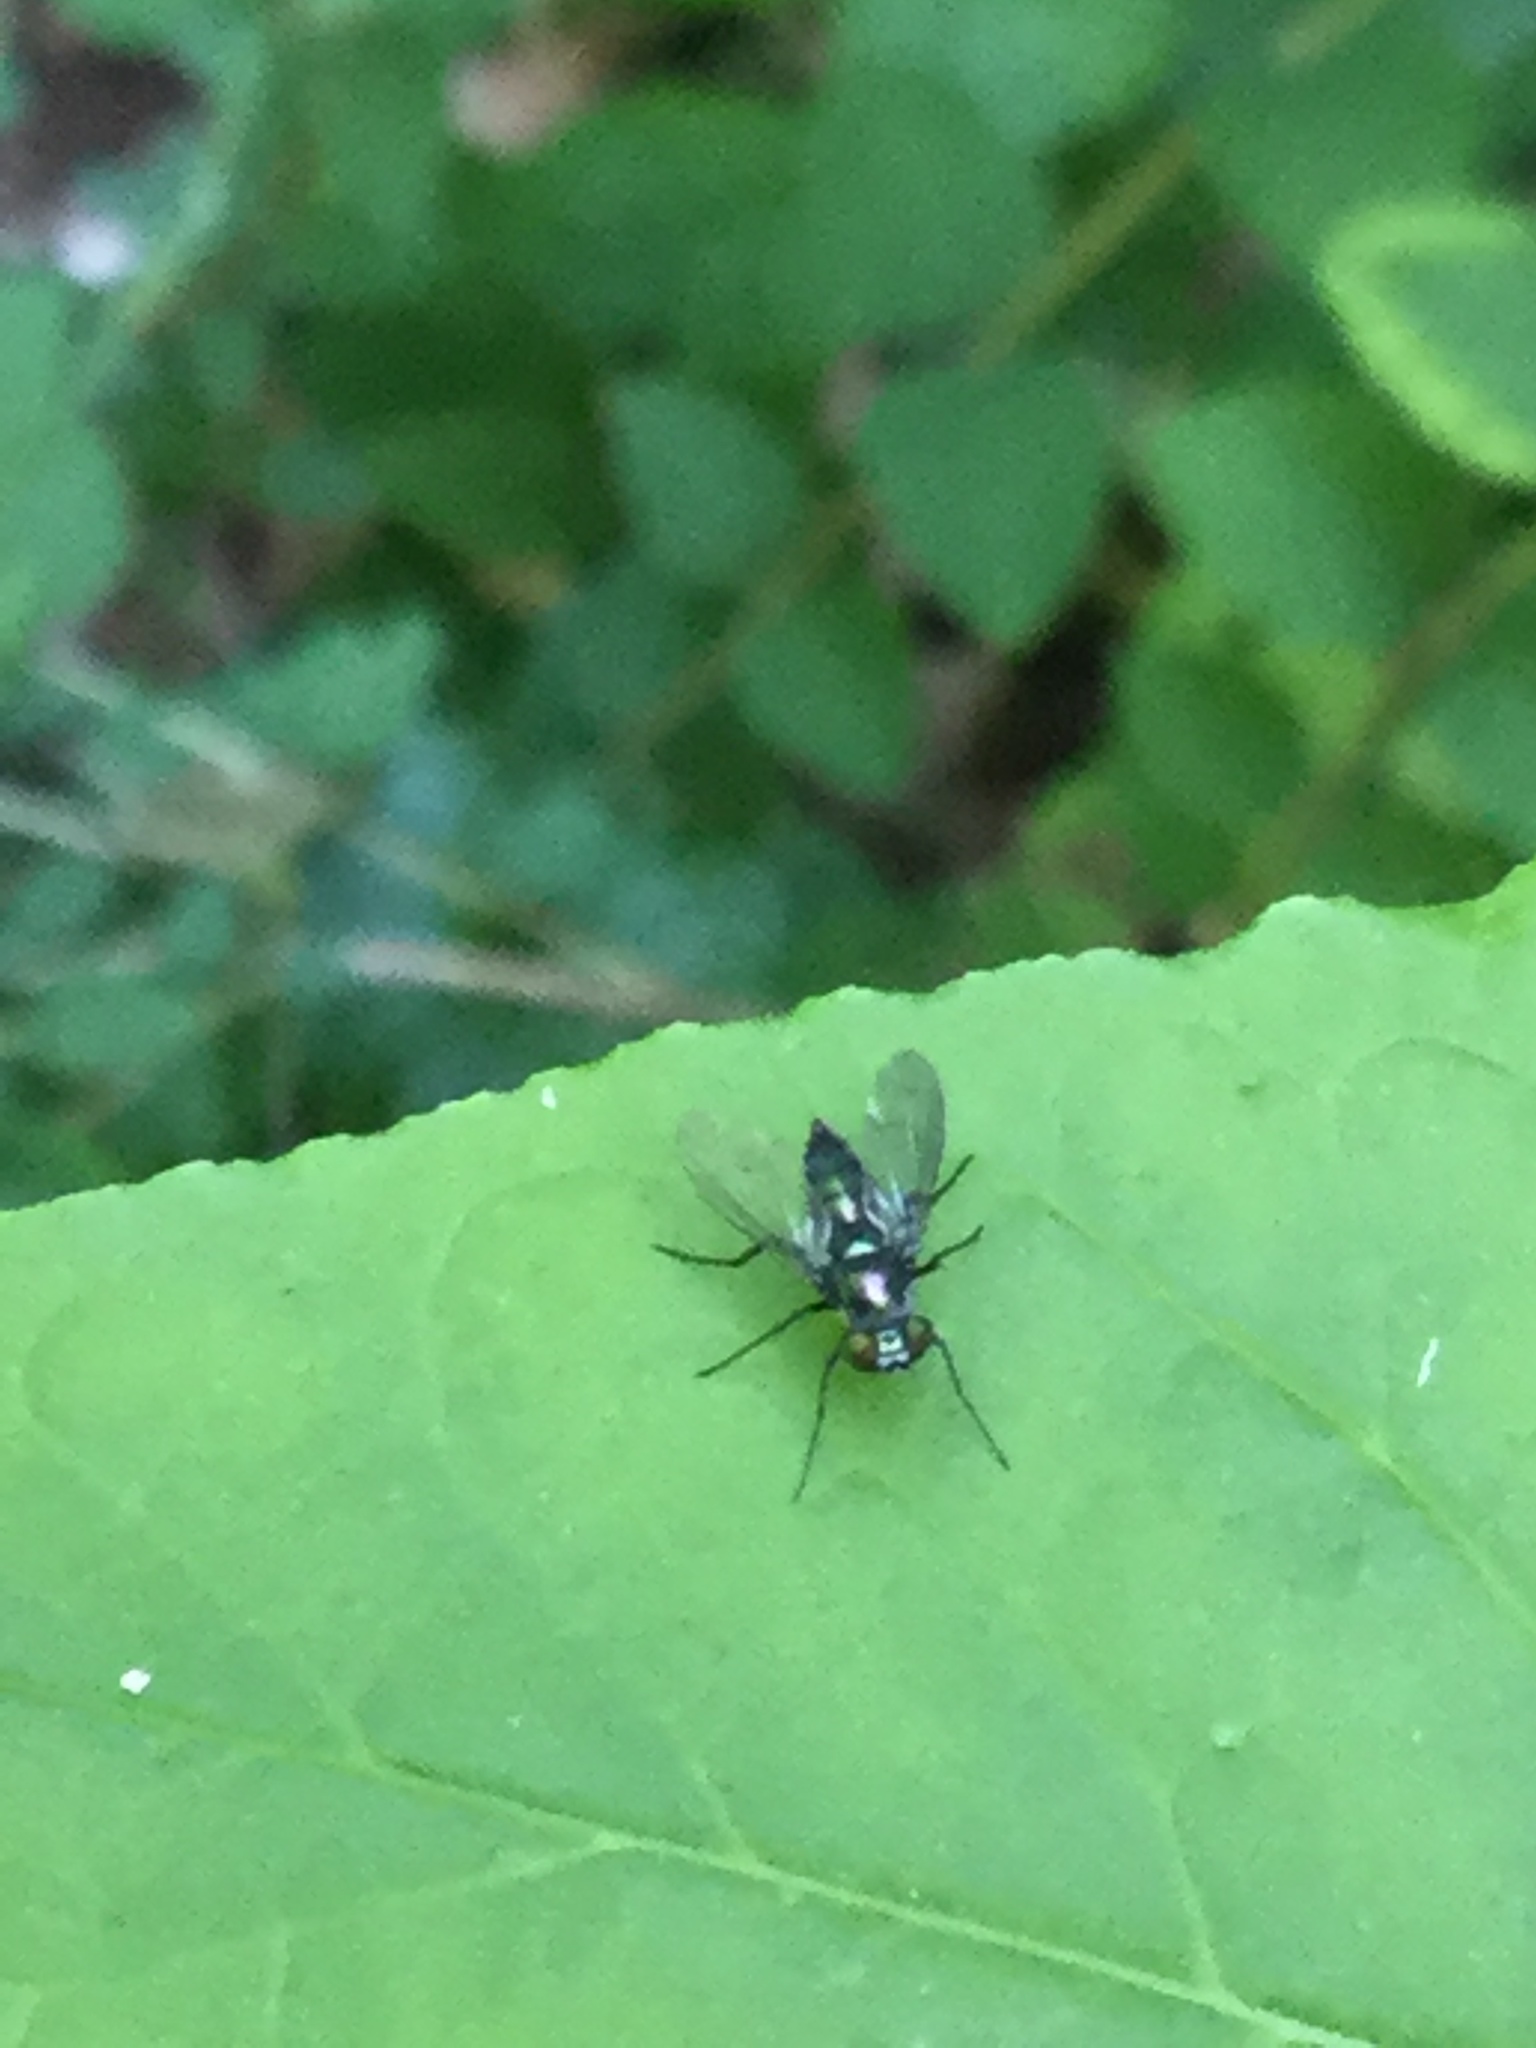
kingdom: Animalia
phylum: Arthropoda
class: Insecta
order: Diptera
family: Dolichopodidae
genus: Condylostylus
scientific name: Condylostylus patibulatus
